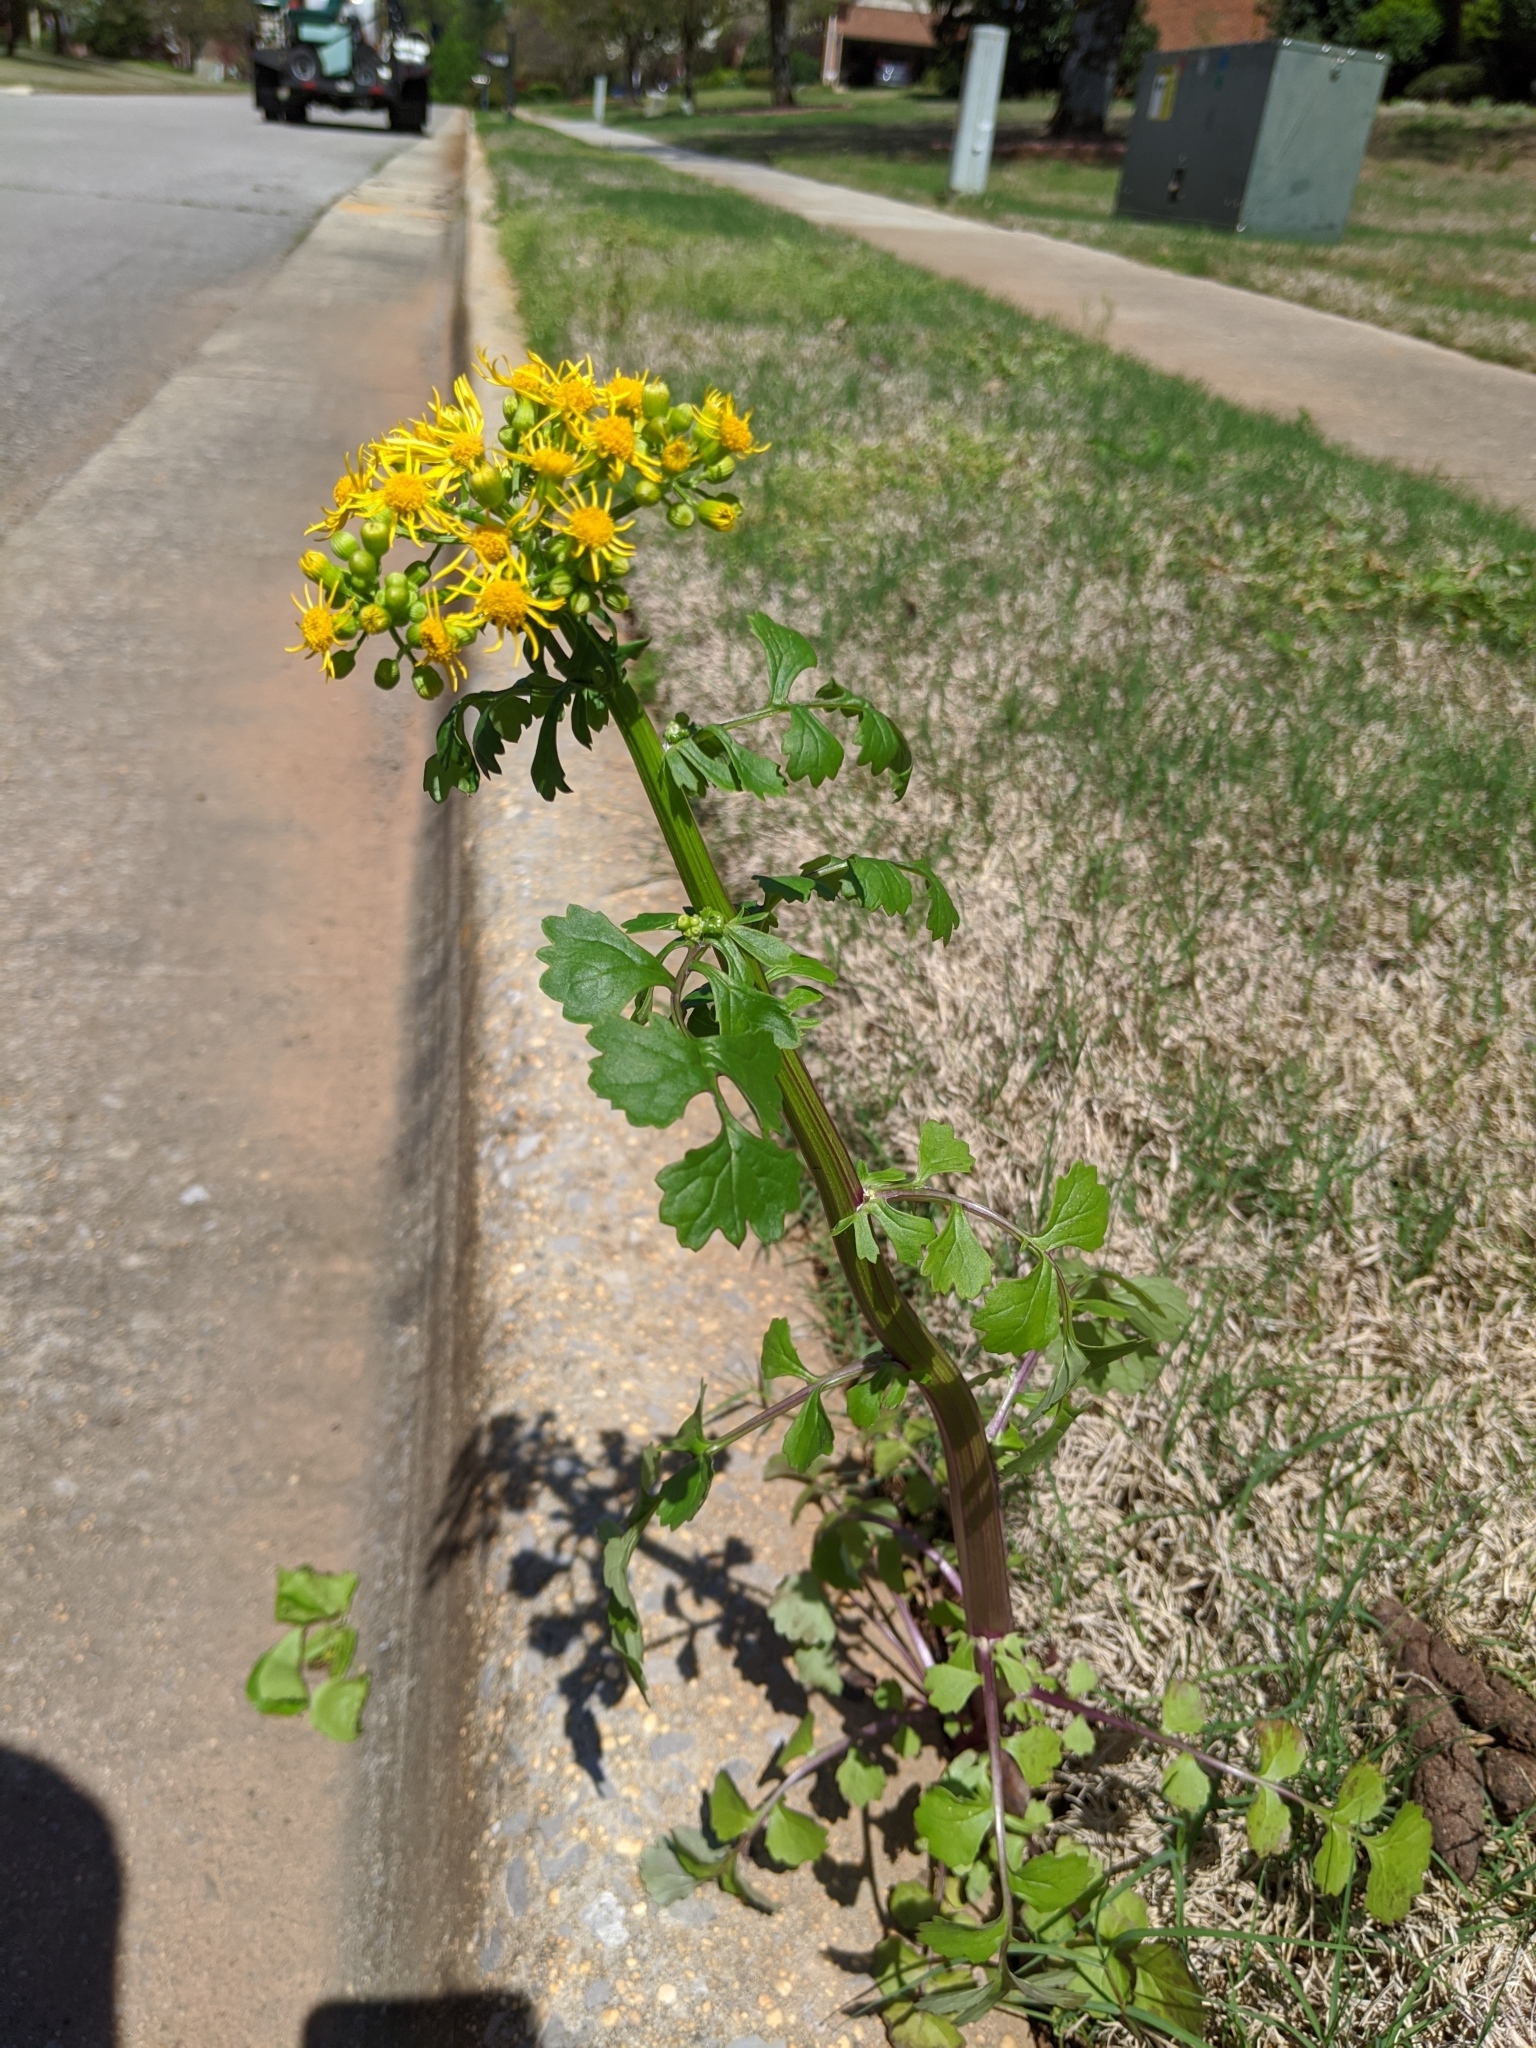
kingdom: Plantae
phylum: Tracheophyta
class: Magnoliopsida
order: Asterales
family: Asteraceae
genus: Packera
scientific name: Packera glabella
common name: Butterweed
